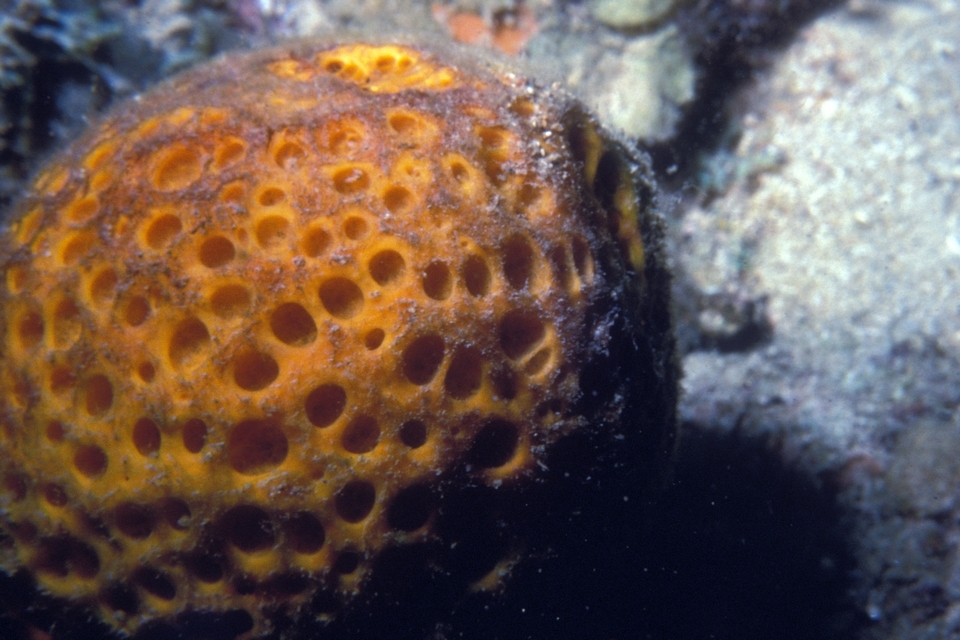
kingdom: Animalia
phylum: Porifera
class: Demospongiae
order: Tetractinellida
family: Tetillidae
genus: Cinachyrella
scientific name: Cinachyrella kuekenthali
